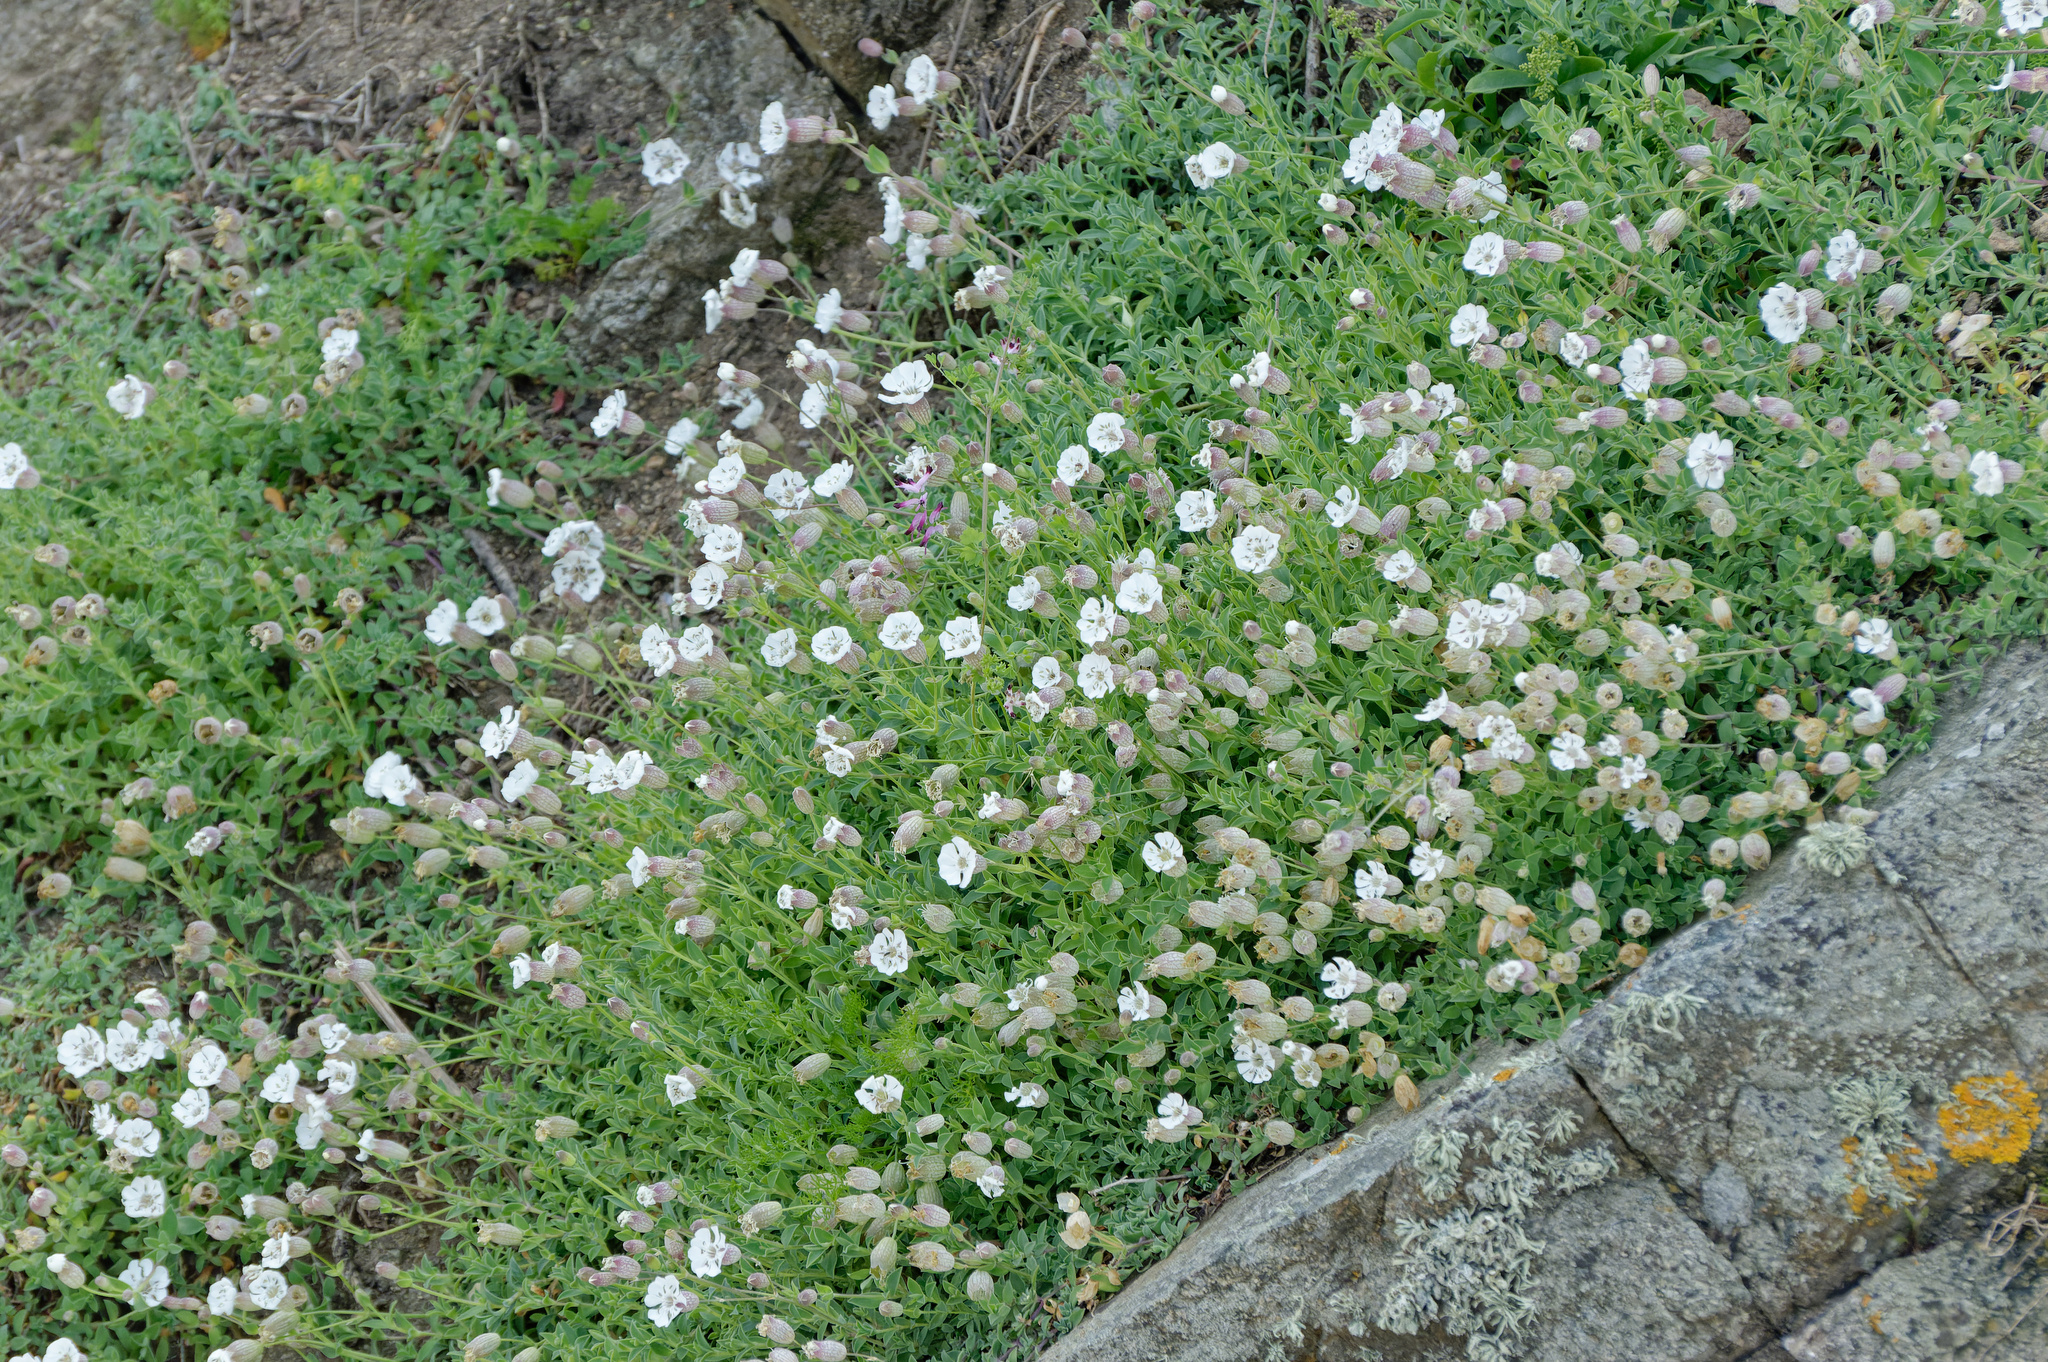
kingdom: Plantae
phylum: Tracheophyta
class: Magnoliopsida
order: Caryophyllales
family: Caryophyllaceae
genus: Silene
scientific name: Silene uniflora
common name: Sea campion
